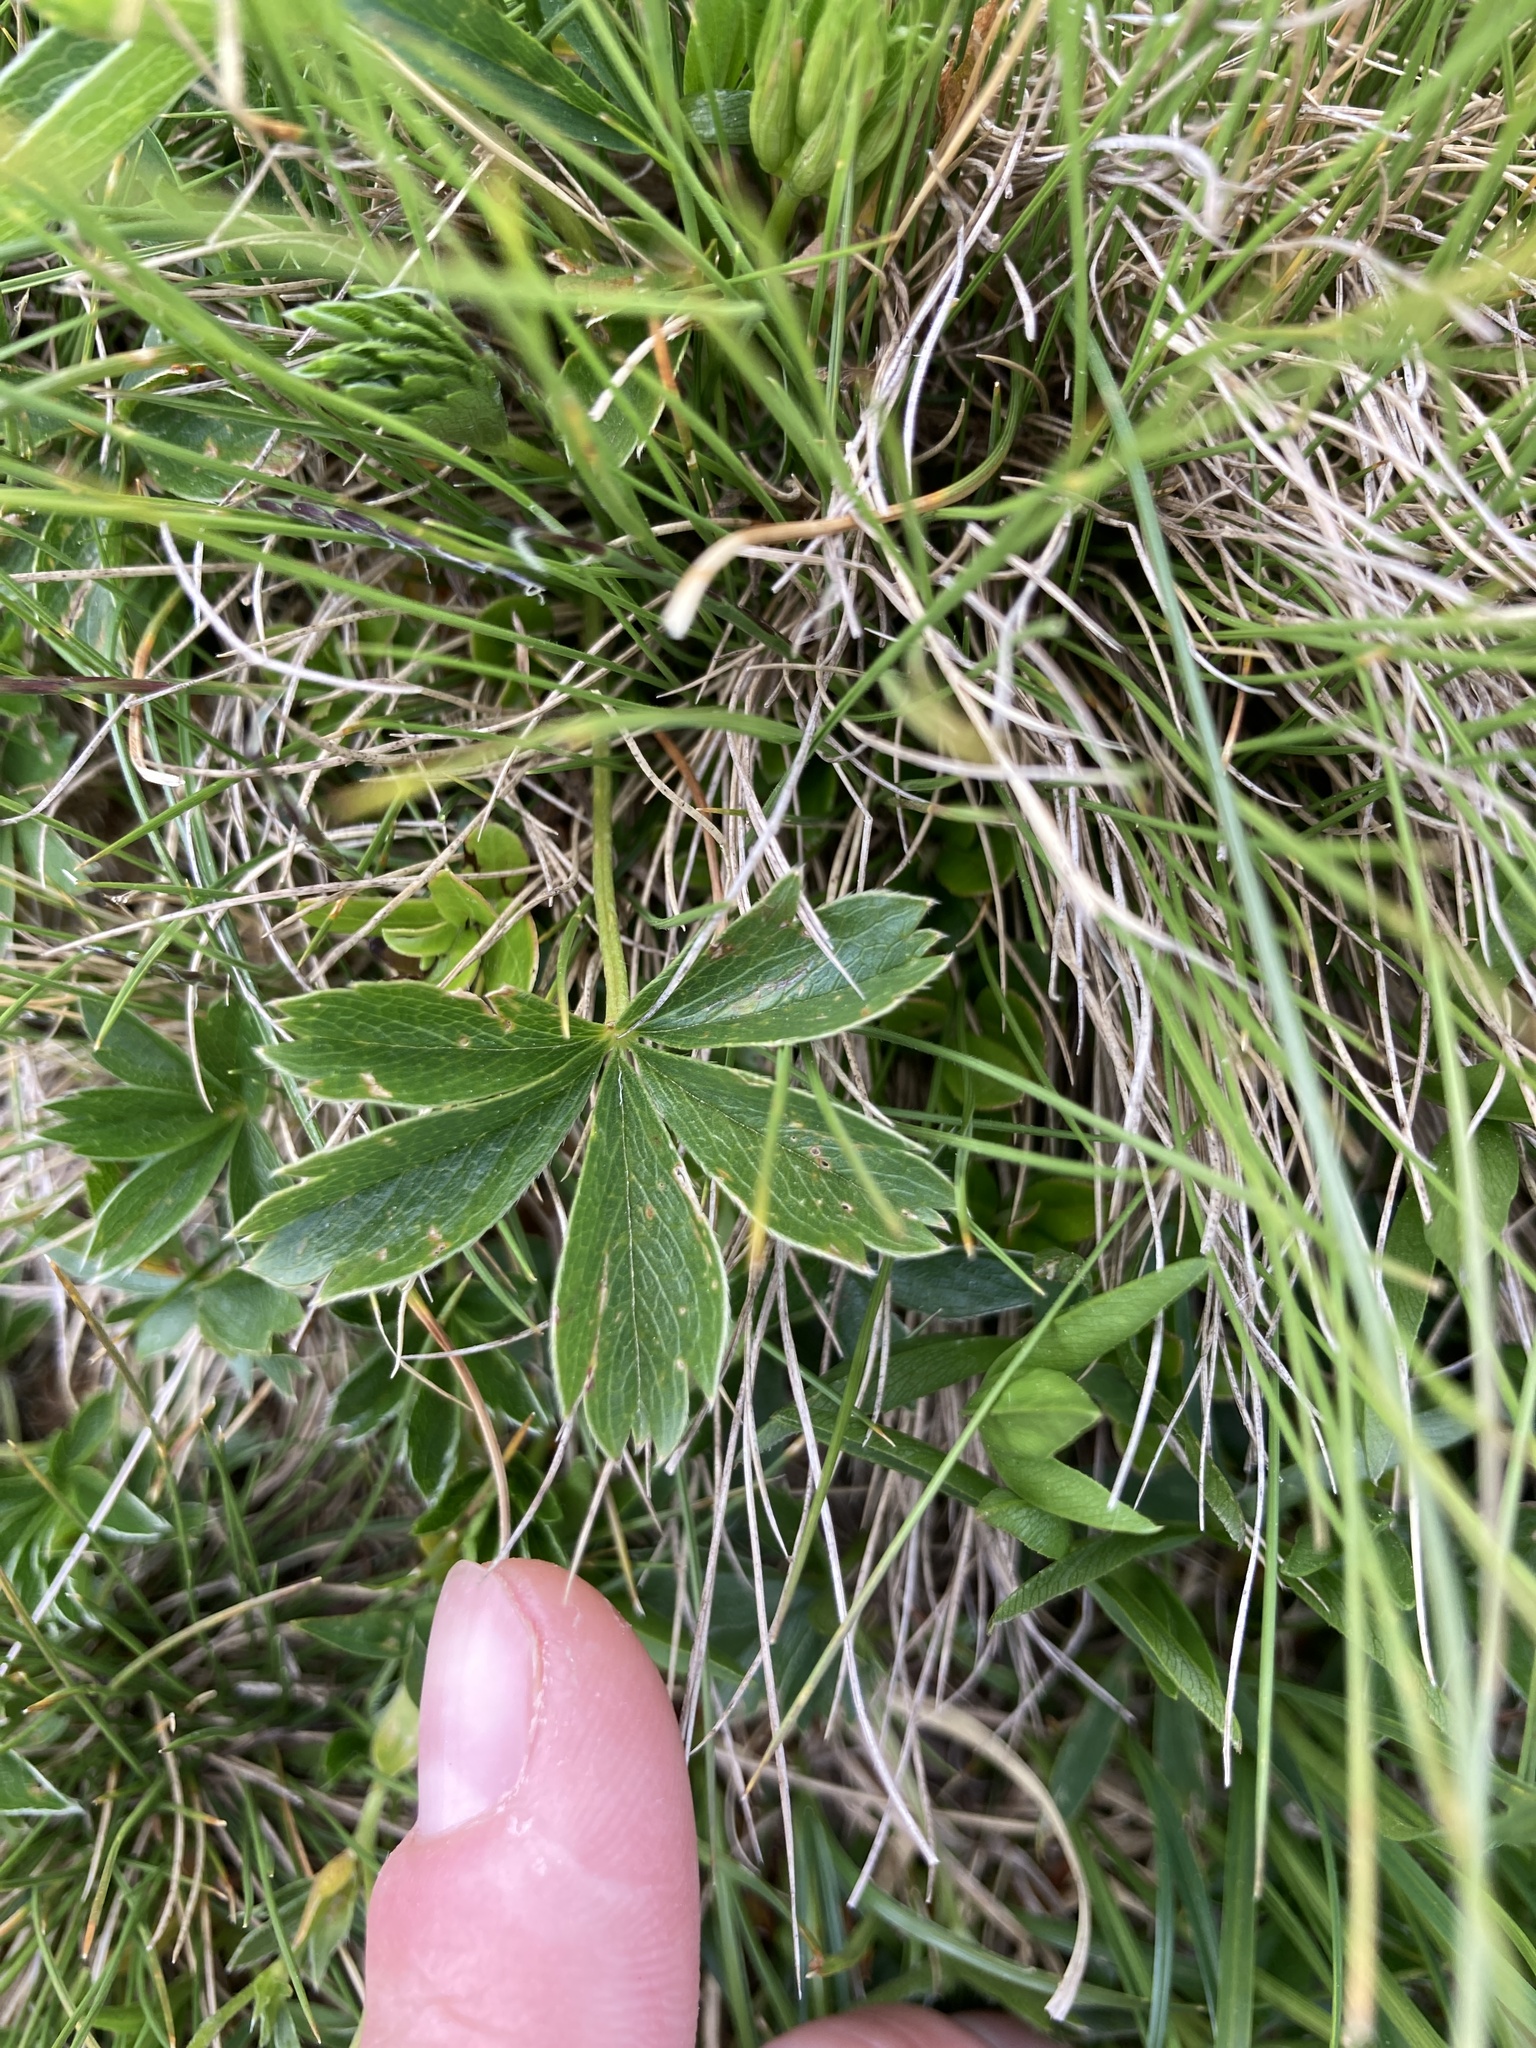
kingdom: Plantae
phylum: Tracheophyta
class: Magnoliopsida
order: Fabales
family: Fabaceae
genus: Trifolium
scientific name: Trifolium alpinum
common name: Alpine clover
